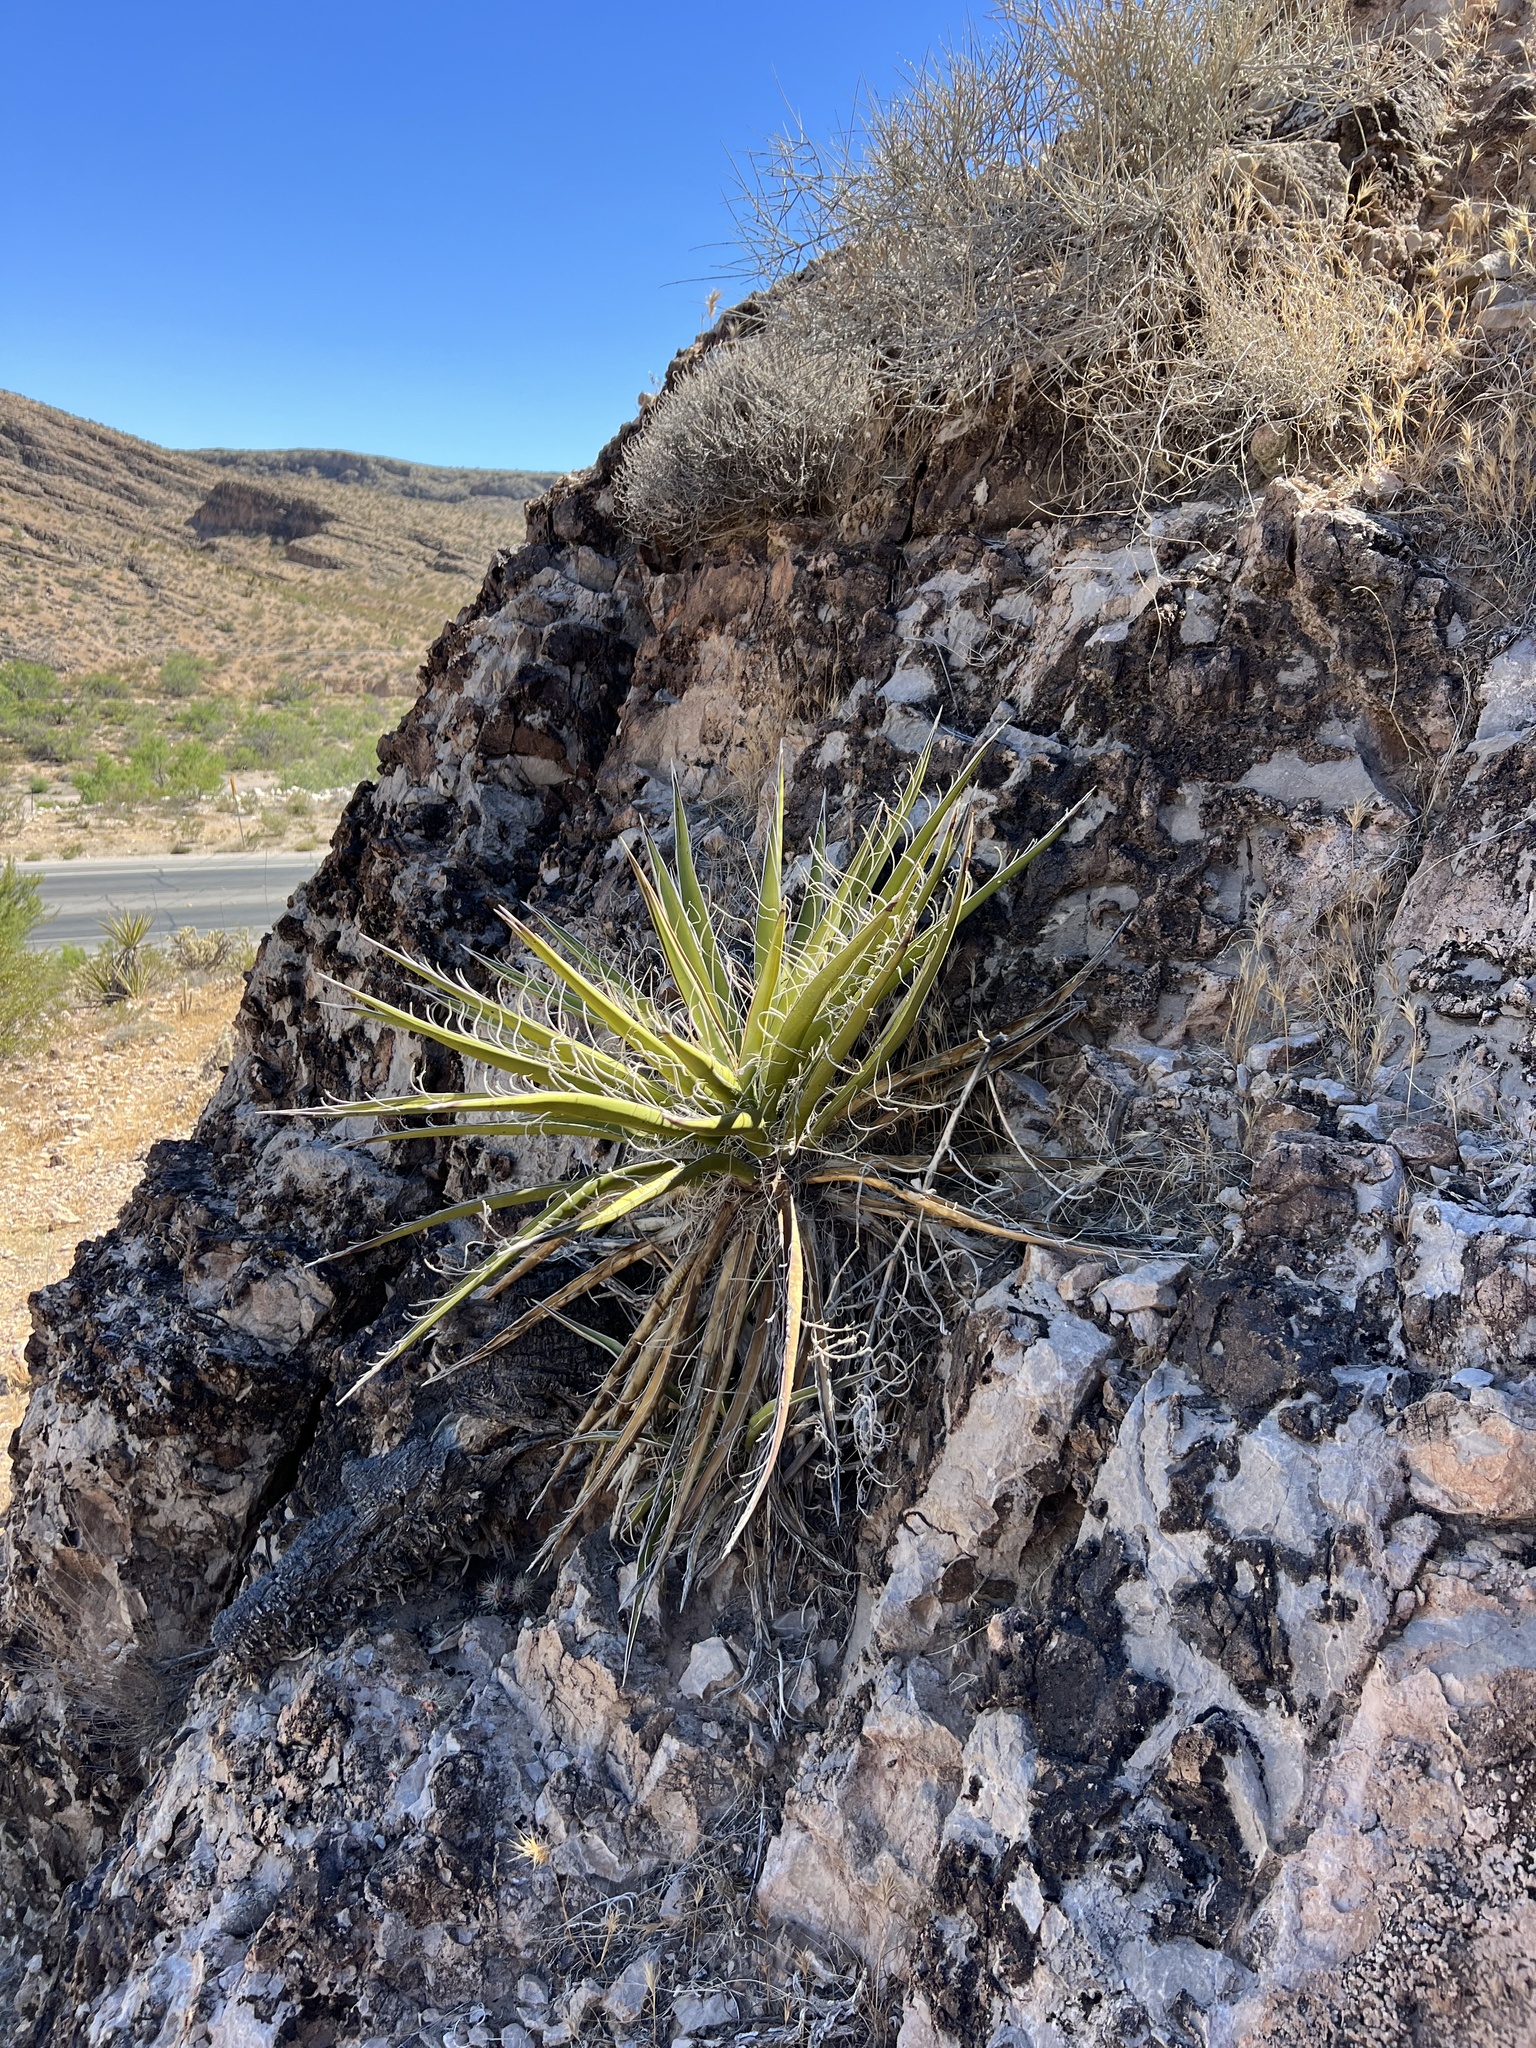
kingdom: Plantae
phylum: Tracheophyta
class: Liliopsida
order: Asparagales
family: Asparagaceae
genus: Yucca
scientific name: Yucca schidigera
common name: Mojave yucca
